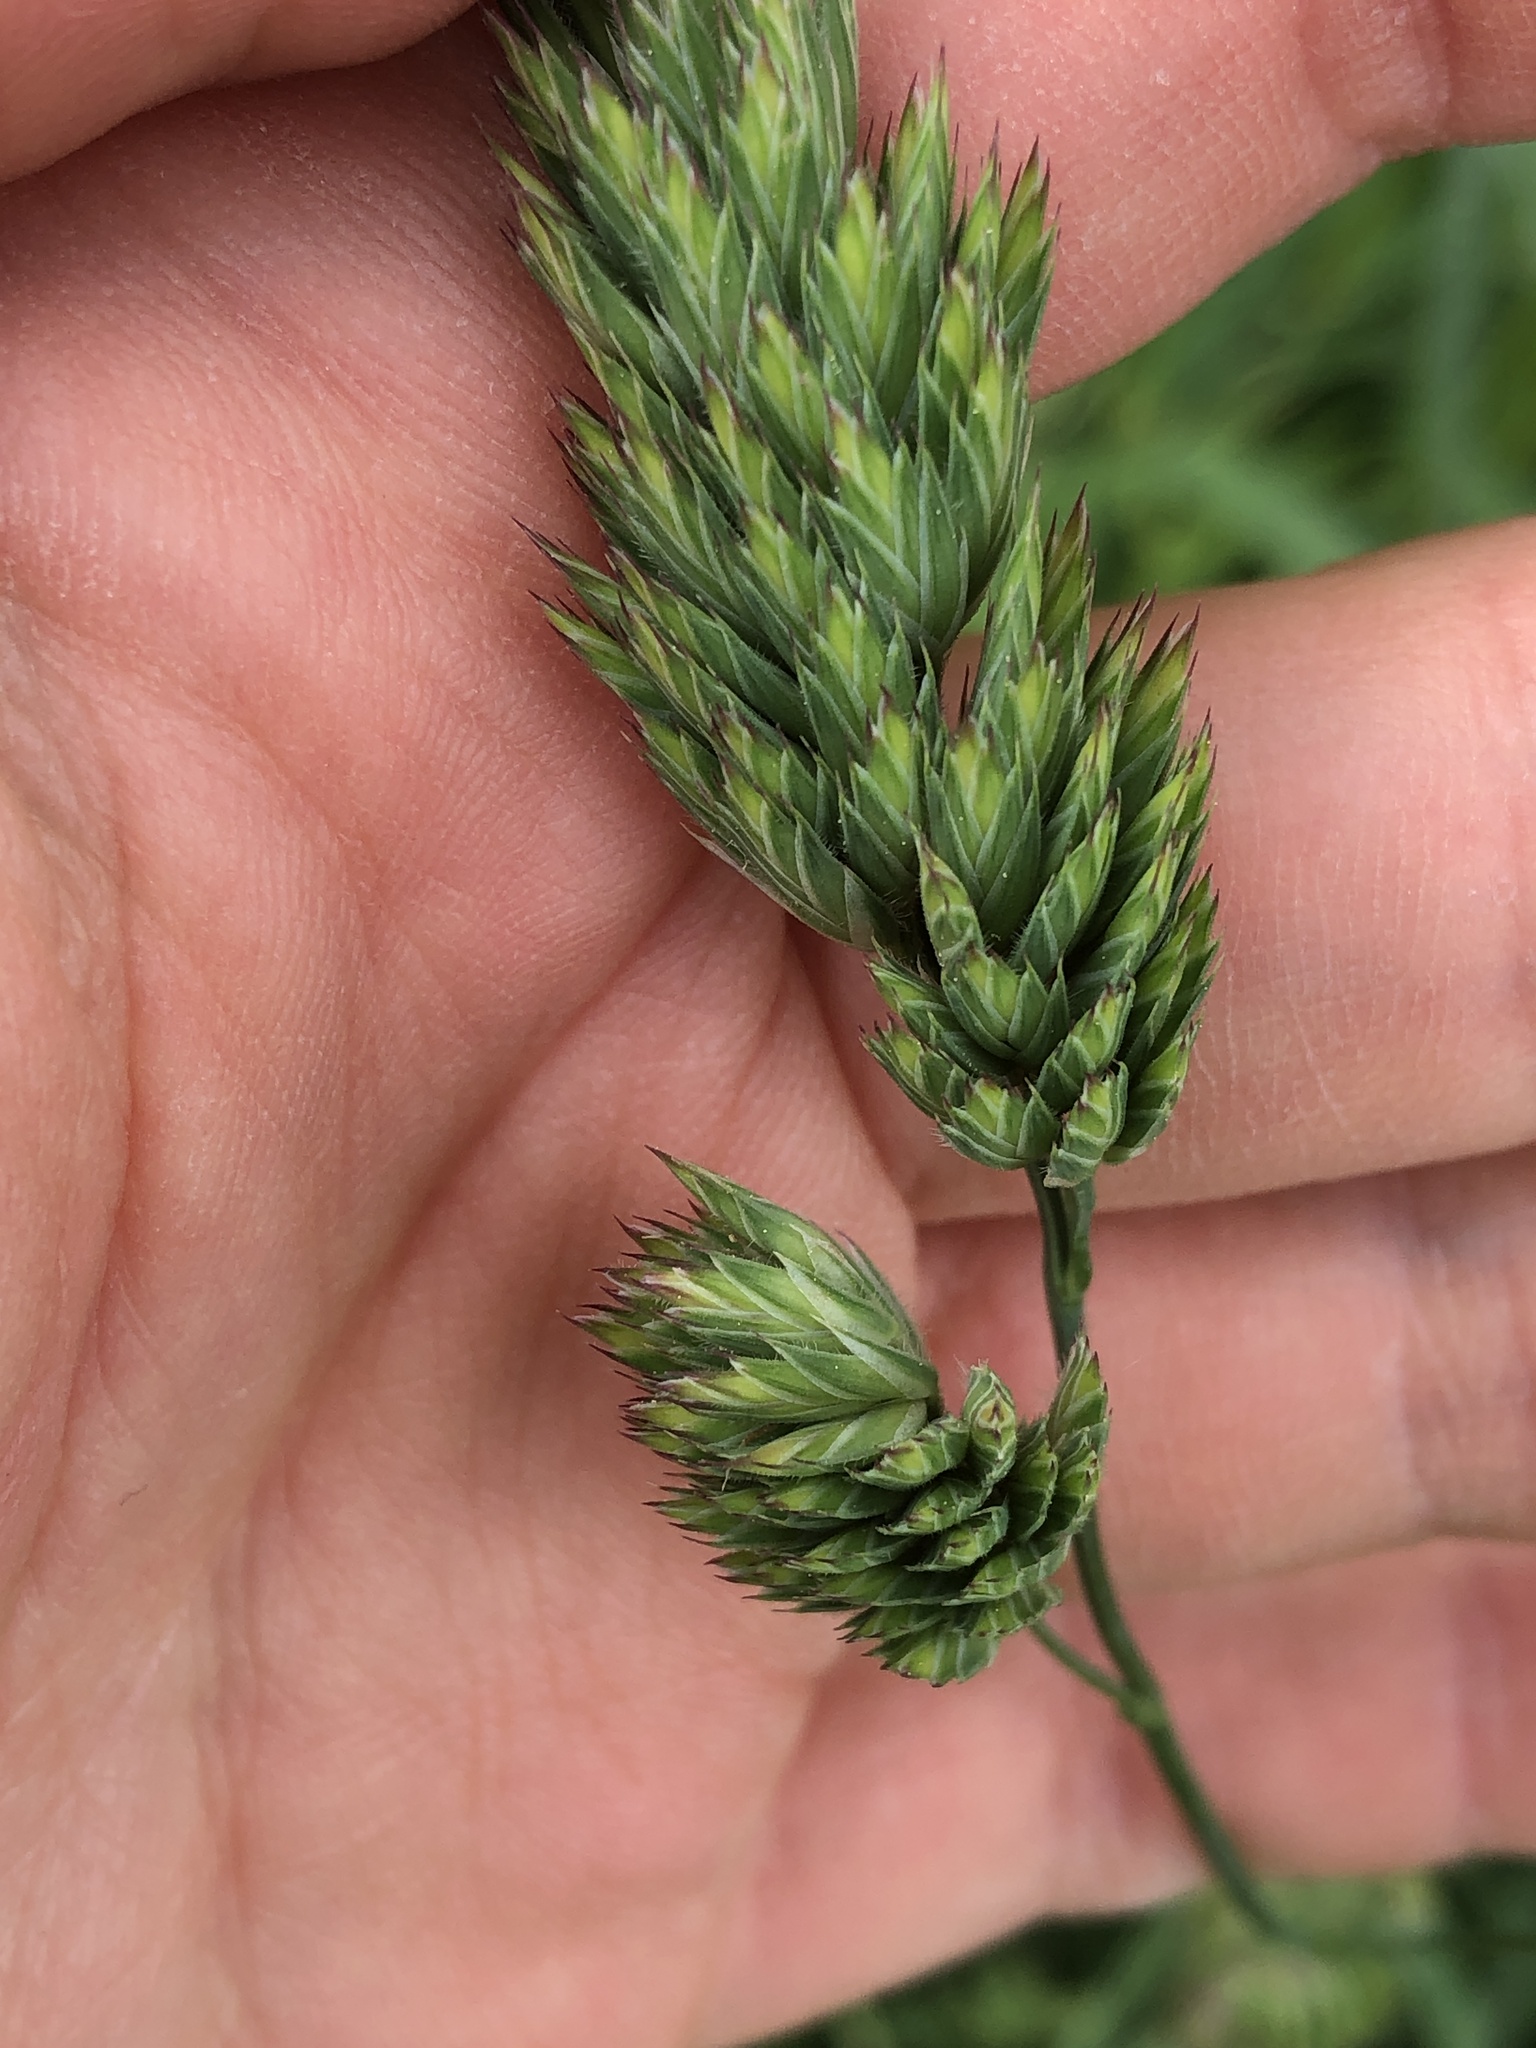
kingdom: Plantae
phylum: Tracheophyta
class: Liliopsida
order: Poales
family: Poaceae
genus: Dactylis
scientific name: Dactylis glomerata
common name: Orchardgrass
